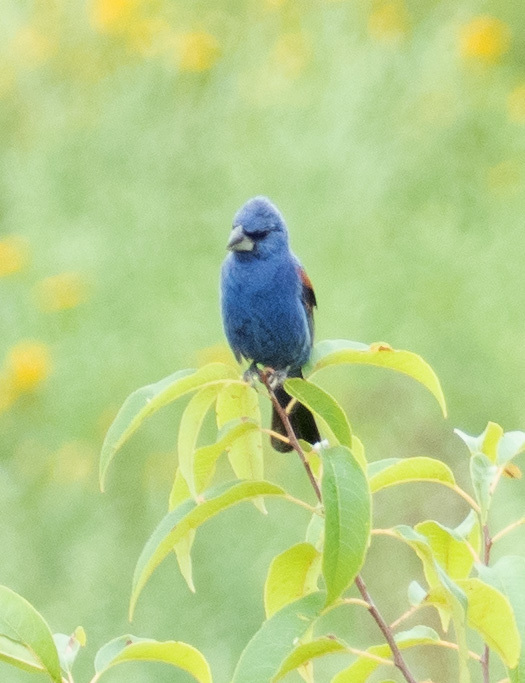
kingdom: Animalia
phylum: Chordata
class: Aves
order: Passeriformes
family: Cardinalidae
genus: Passerina
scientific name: Passerina caerulea
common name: Blue grosbeak
